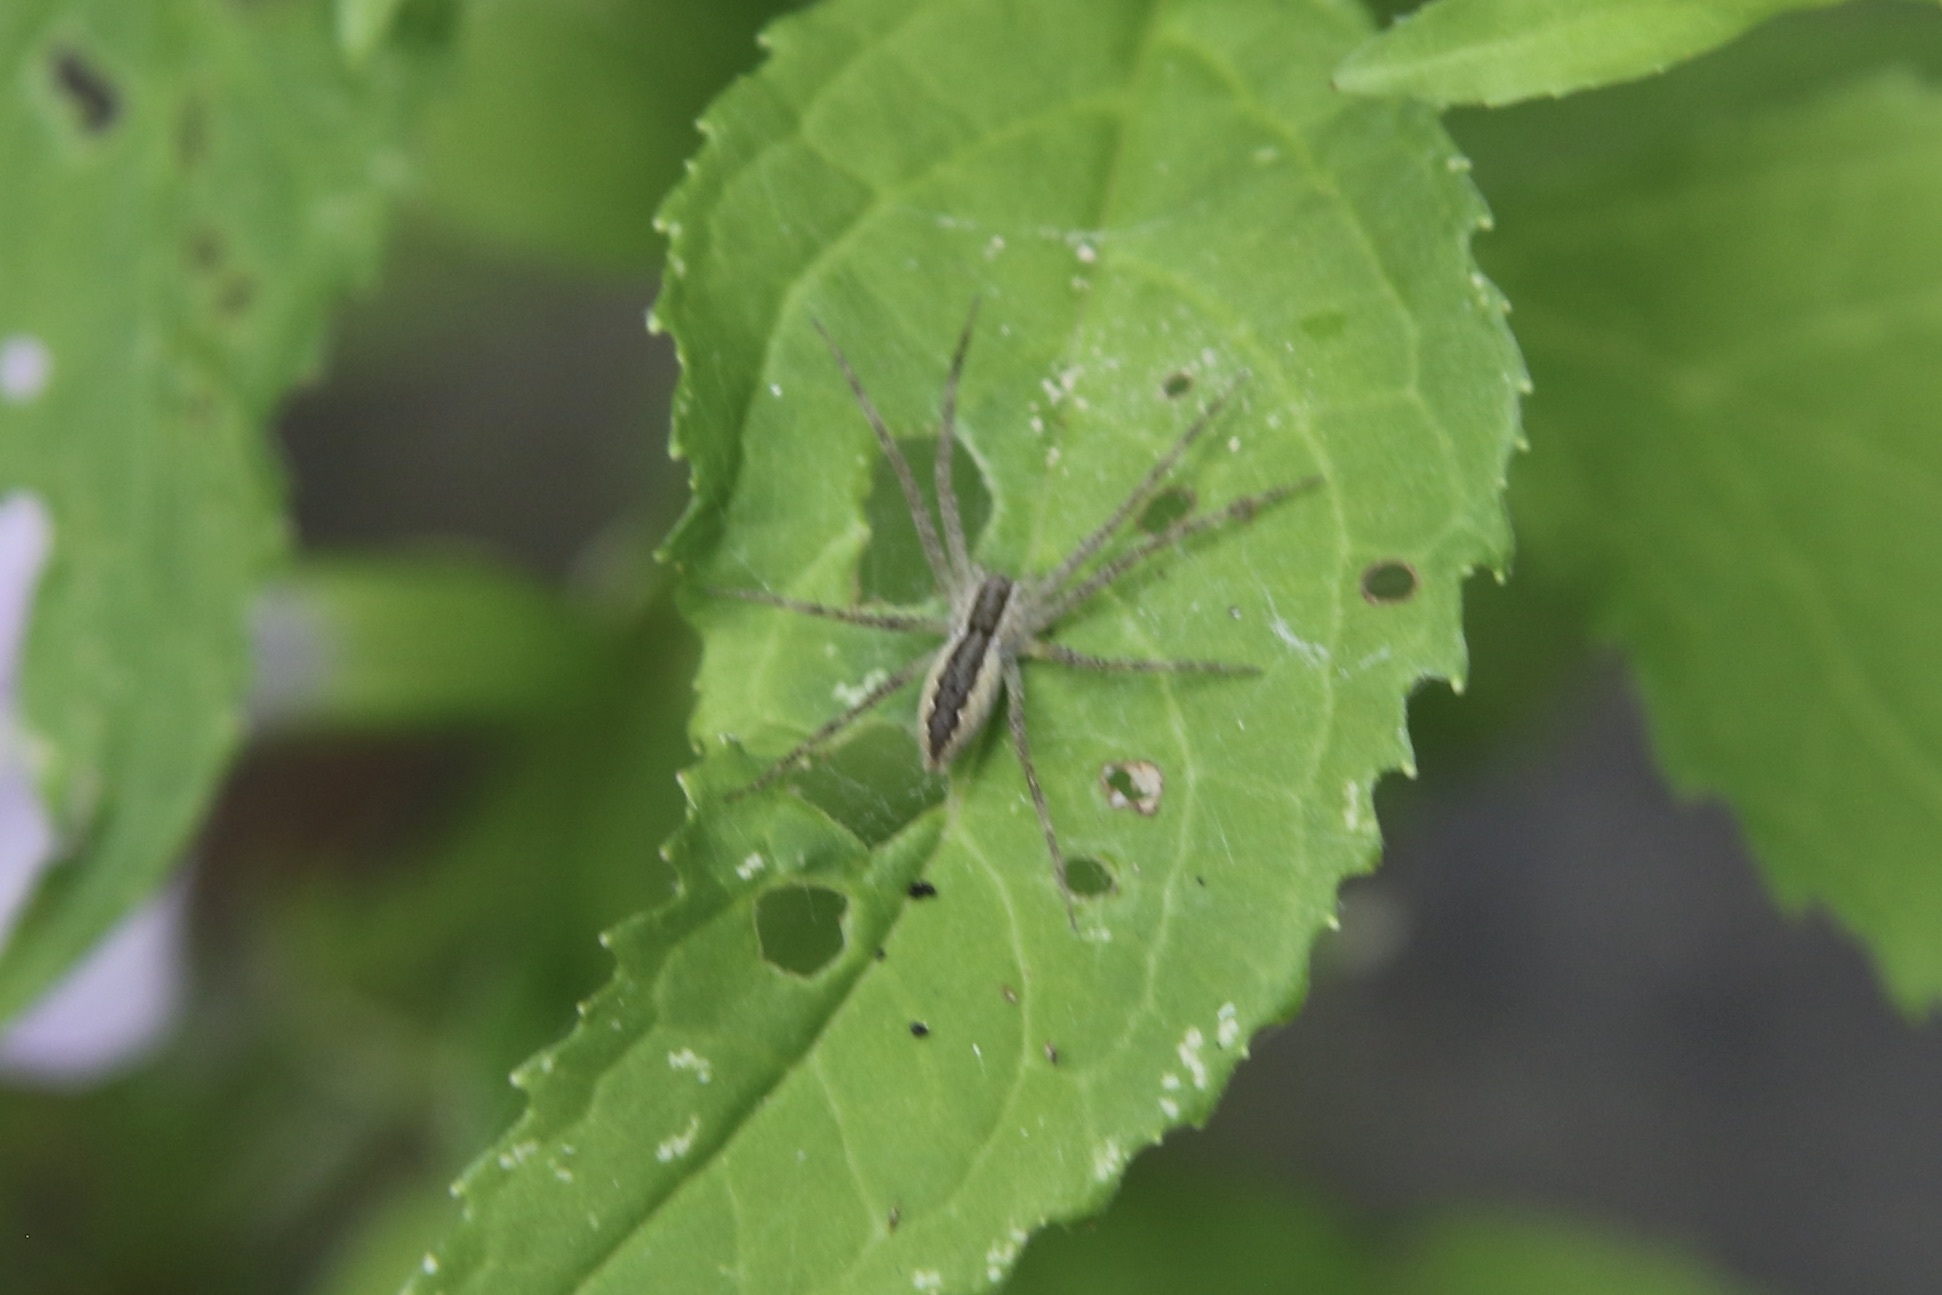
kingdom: Animalia
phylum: Arthropoda
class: Arachnida
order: Araneae
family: Pisauridae
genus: Pisaurina
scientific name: Pisaurina mira
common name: American nursery web spider
